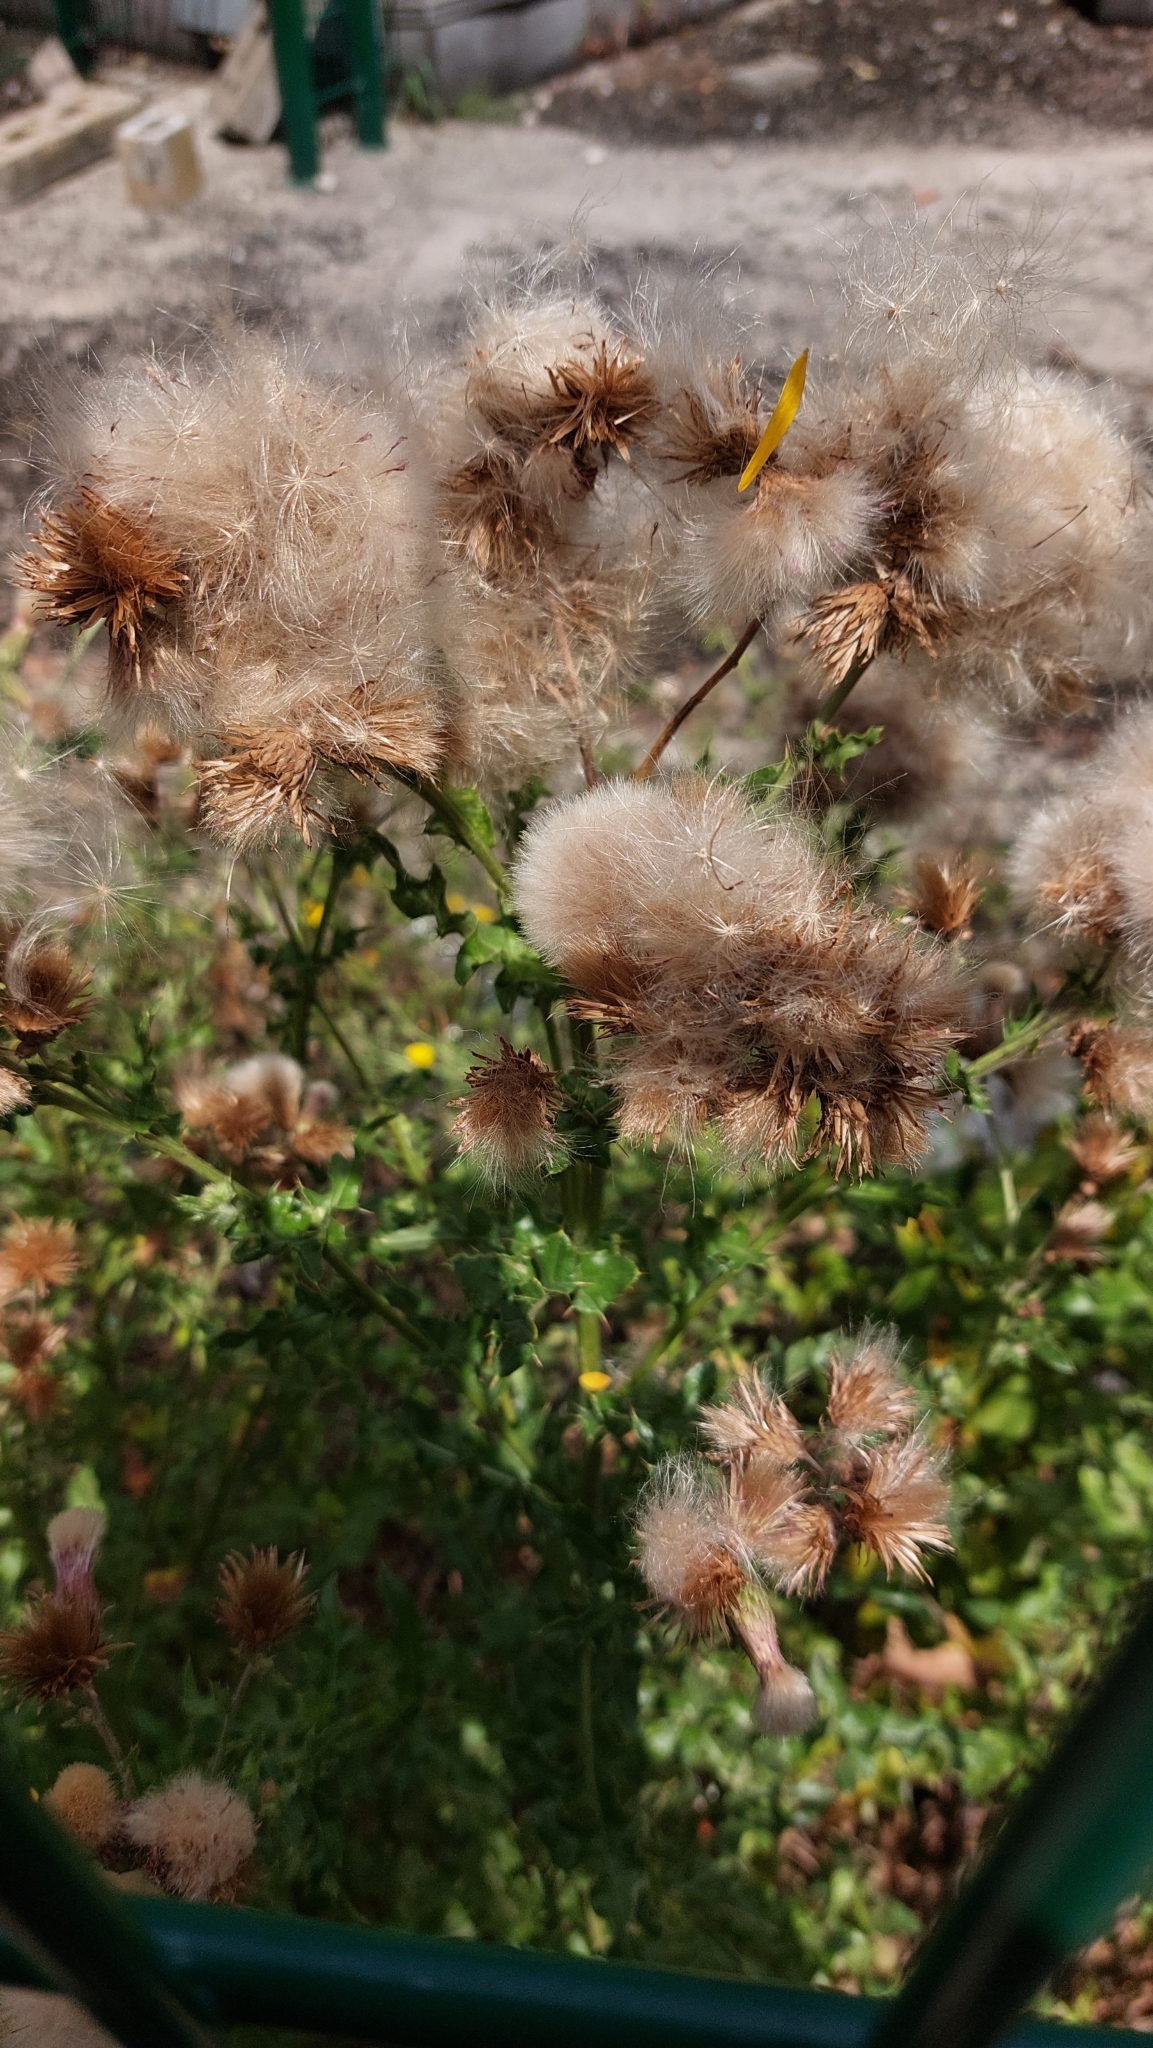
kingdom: Plantae
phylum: Tracheophyta
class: Magnoliopsida
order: Asterales
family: Asteraceae
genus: Cirsium
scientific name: Cirsium arvense
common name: Creeping thistle
